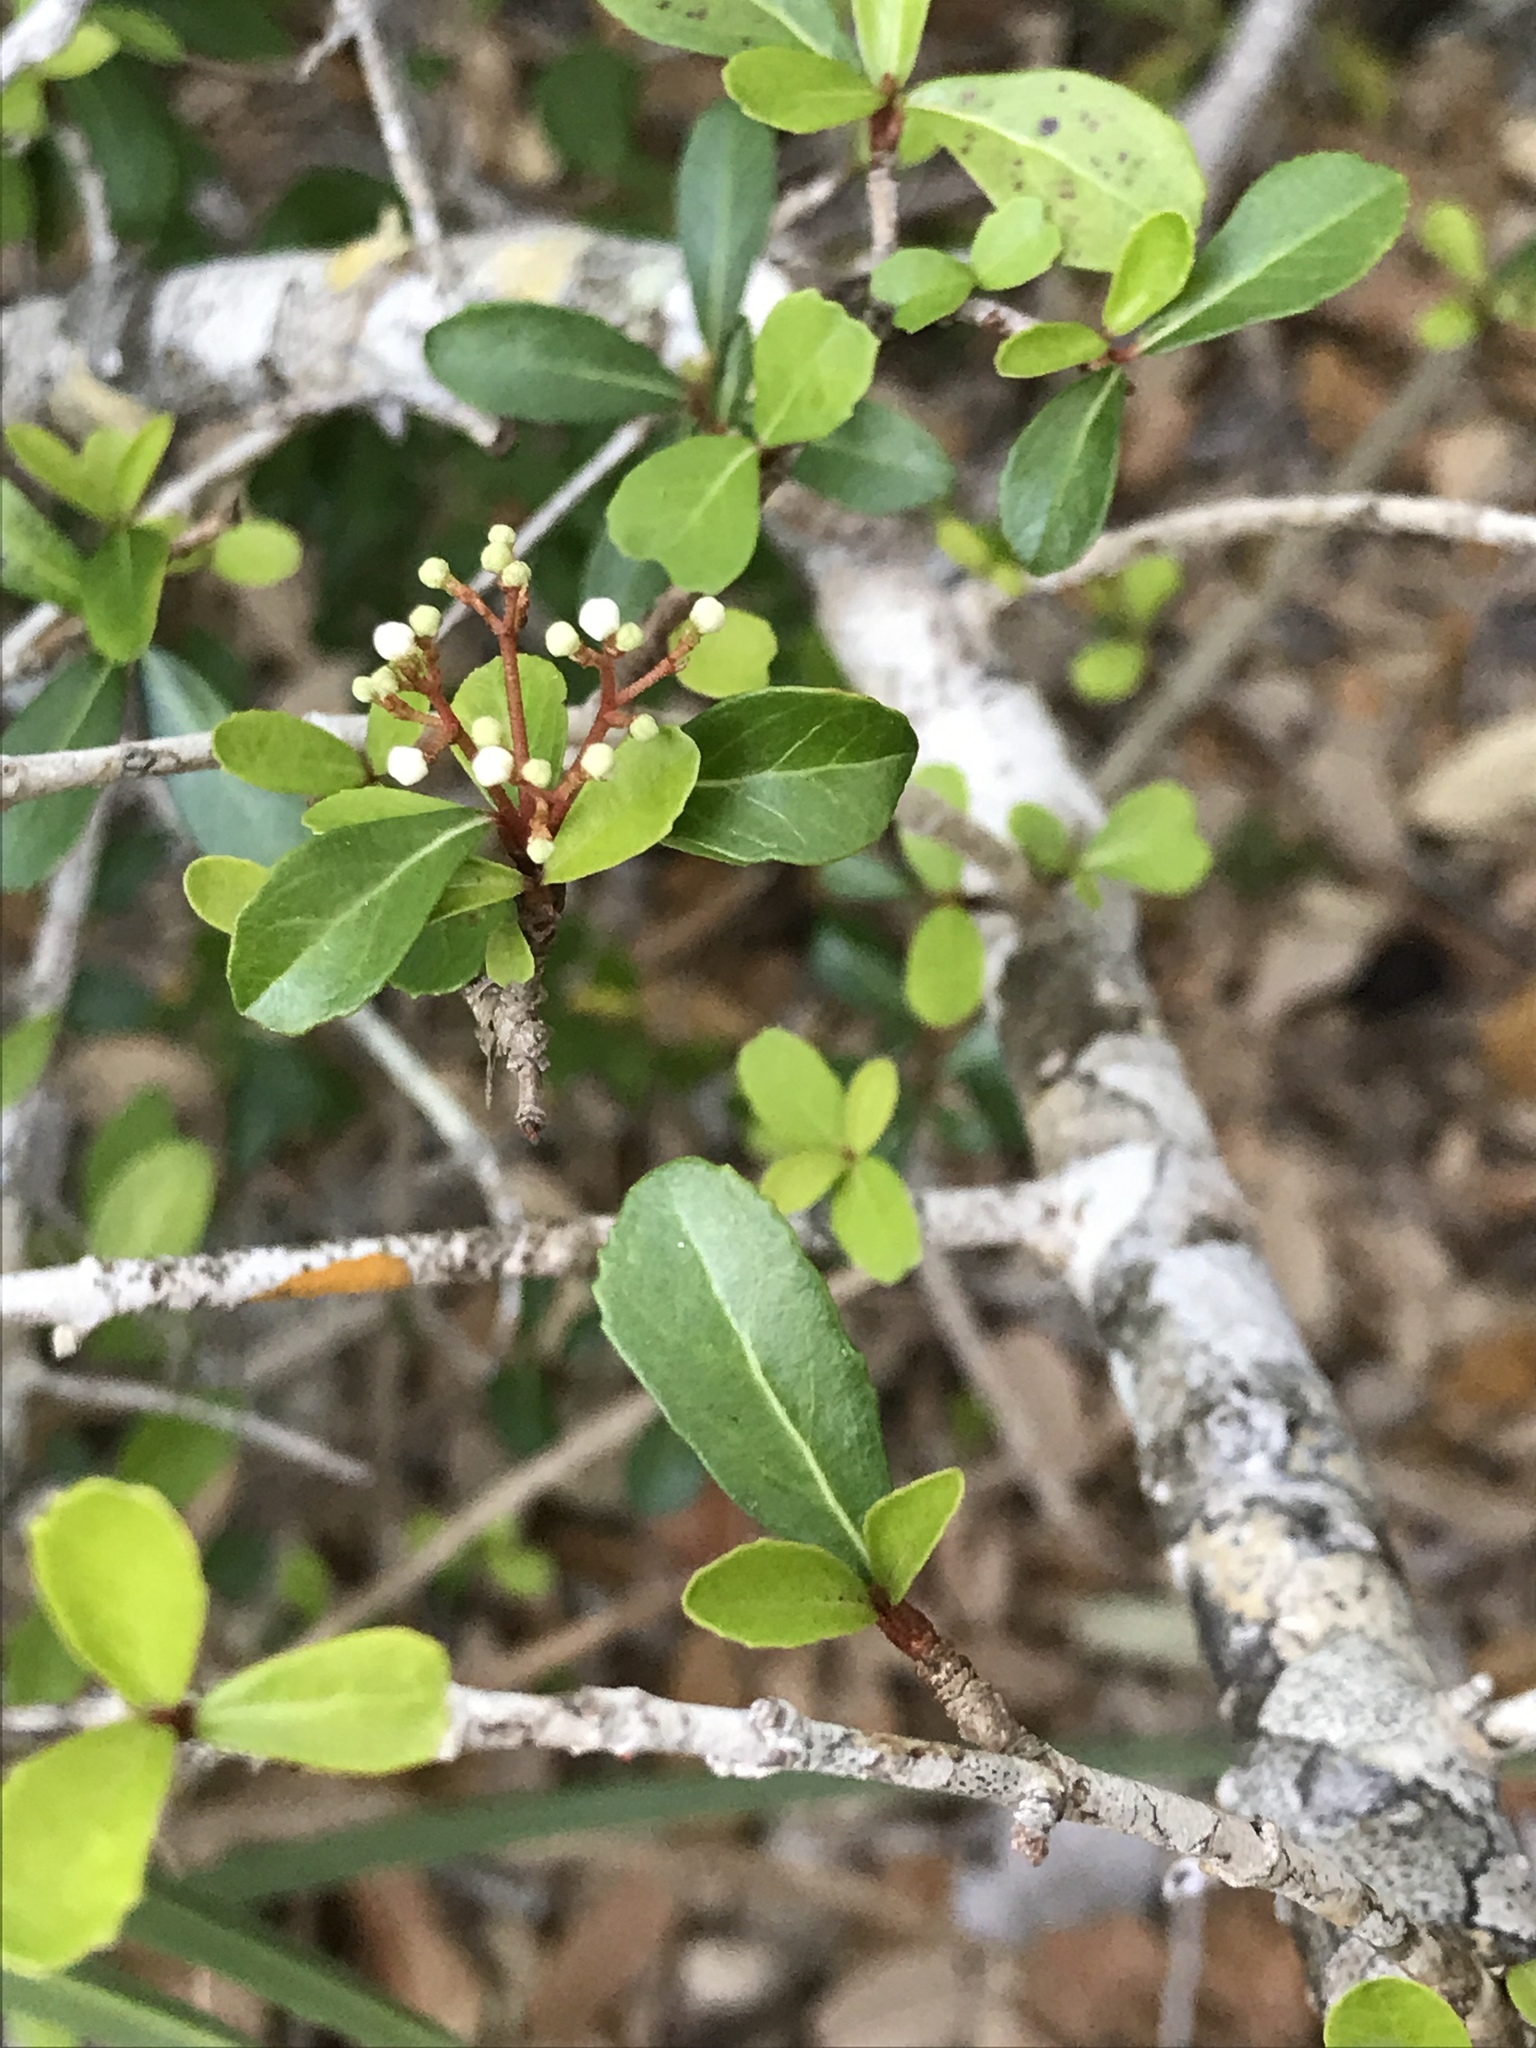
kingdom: Plantae
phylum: Tracheophyta
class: Magnoliopsida
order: Dipsacales
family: Viburnaceae
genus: Viburnum
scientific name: Viburnum obovatum
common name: Walter's viburnum
